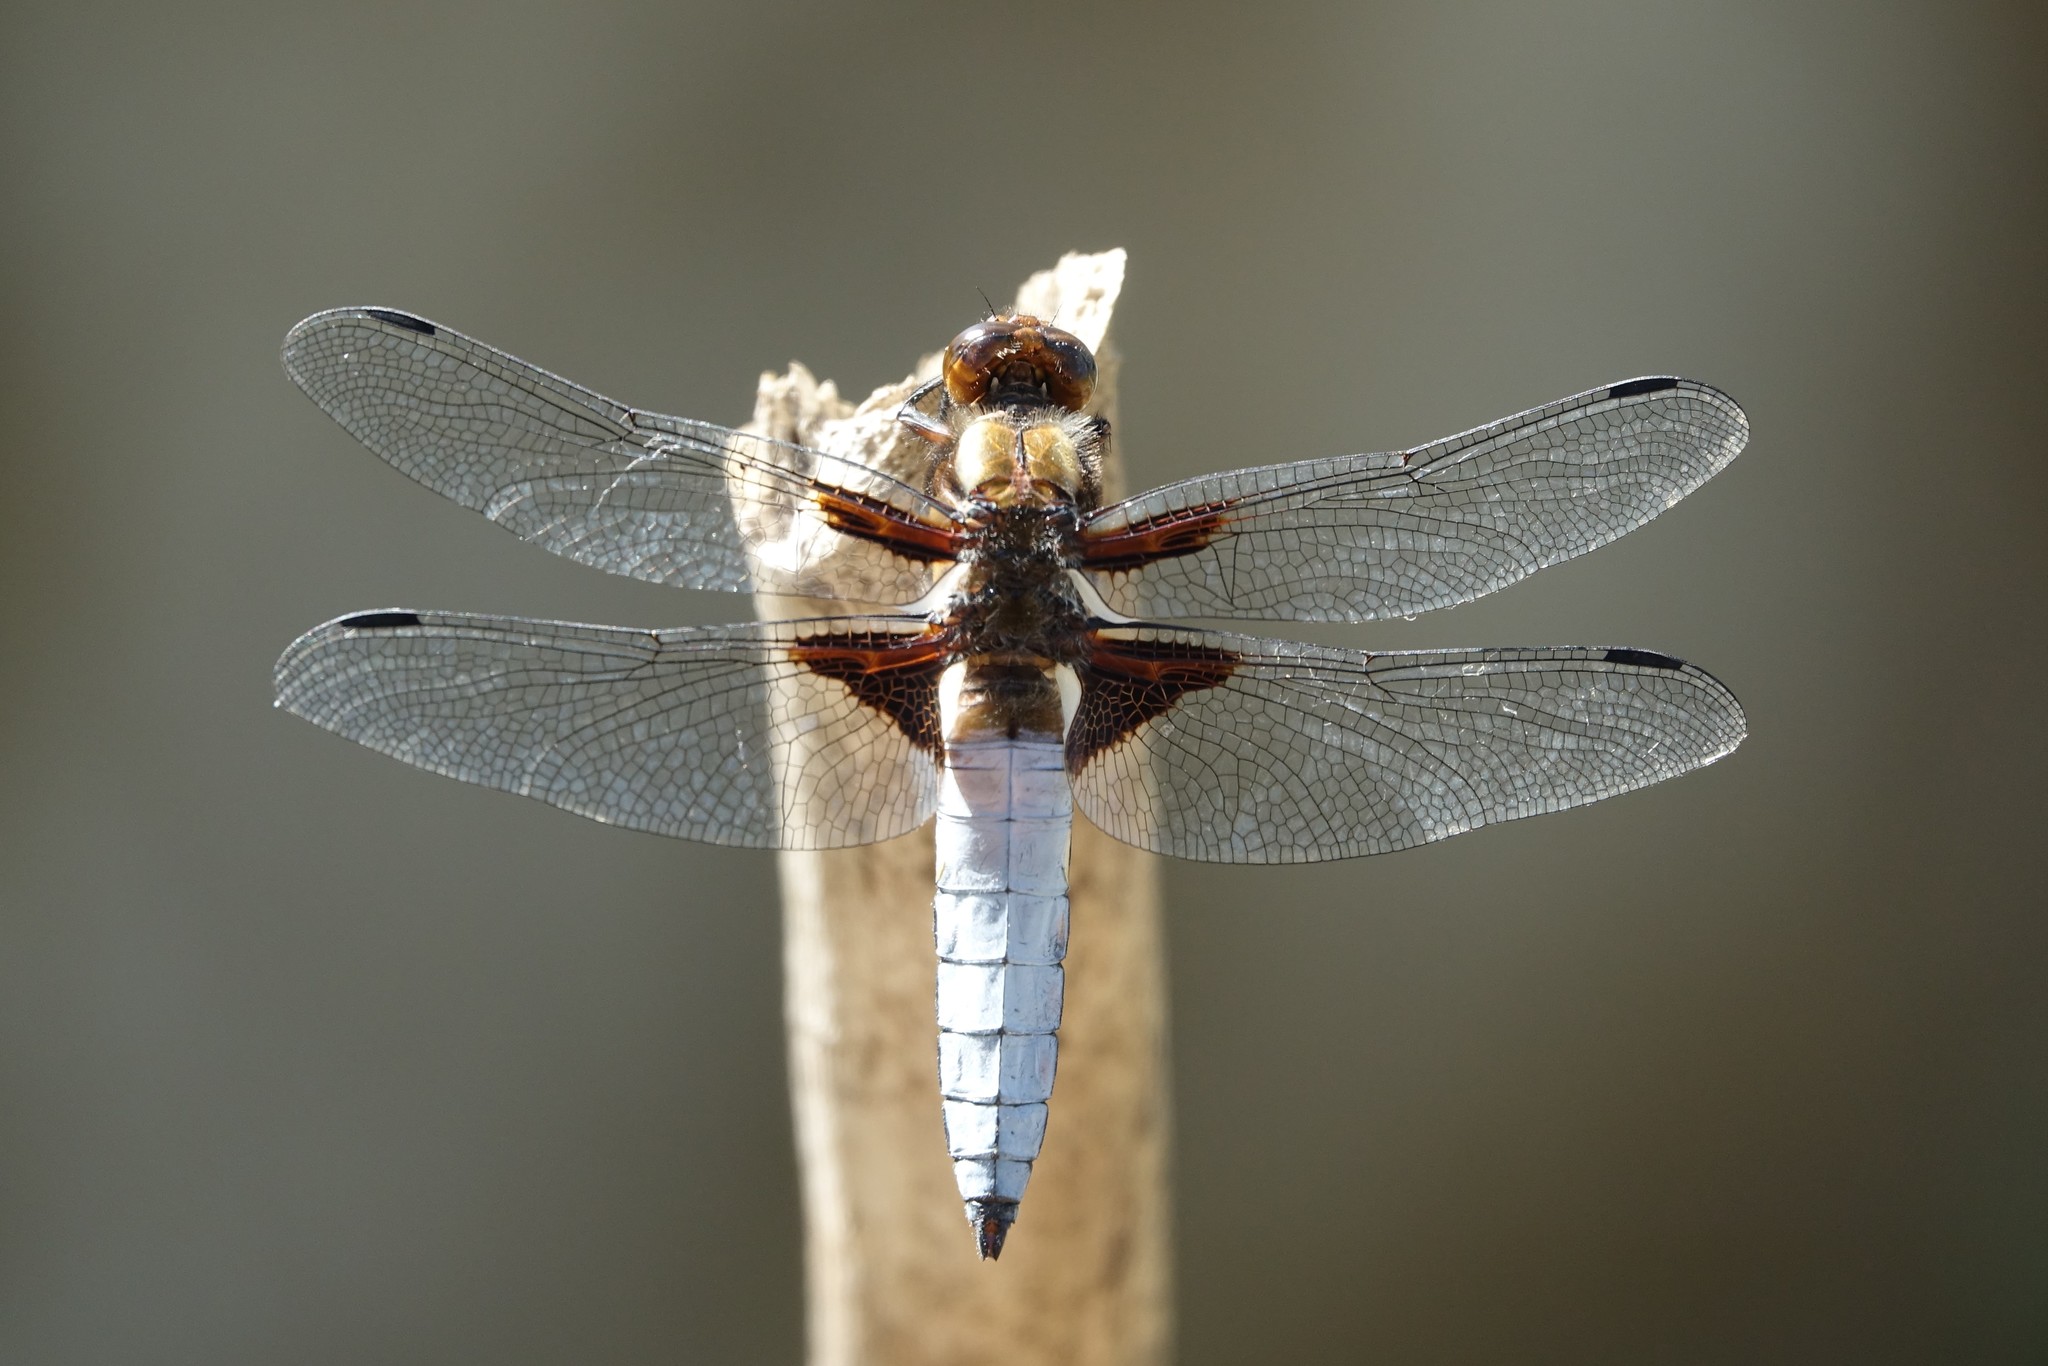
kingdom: Animalia
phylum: Arthropoda
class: Insecta
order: Odonata
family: Libellulidae
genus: Libellula
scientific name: Libellula depressa
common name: Broad-bodied chaser
